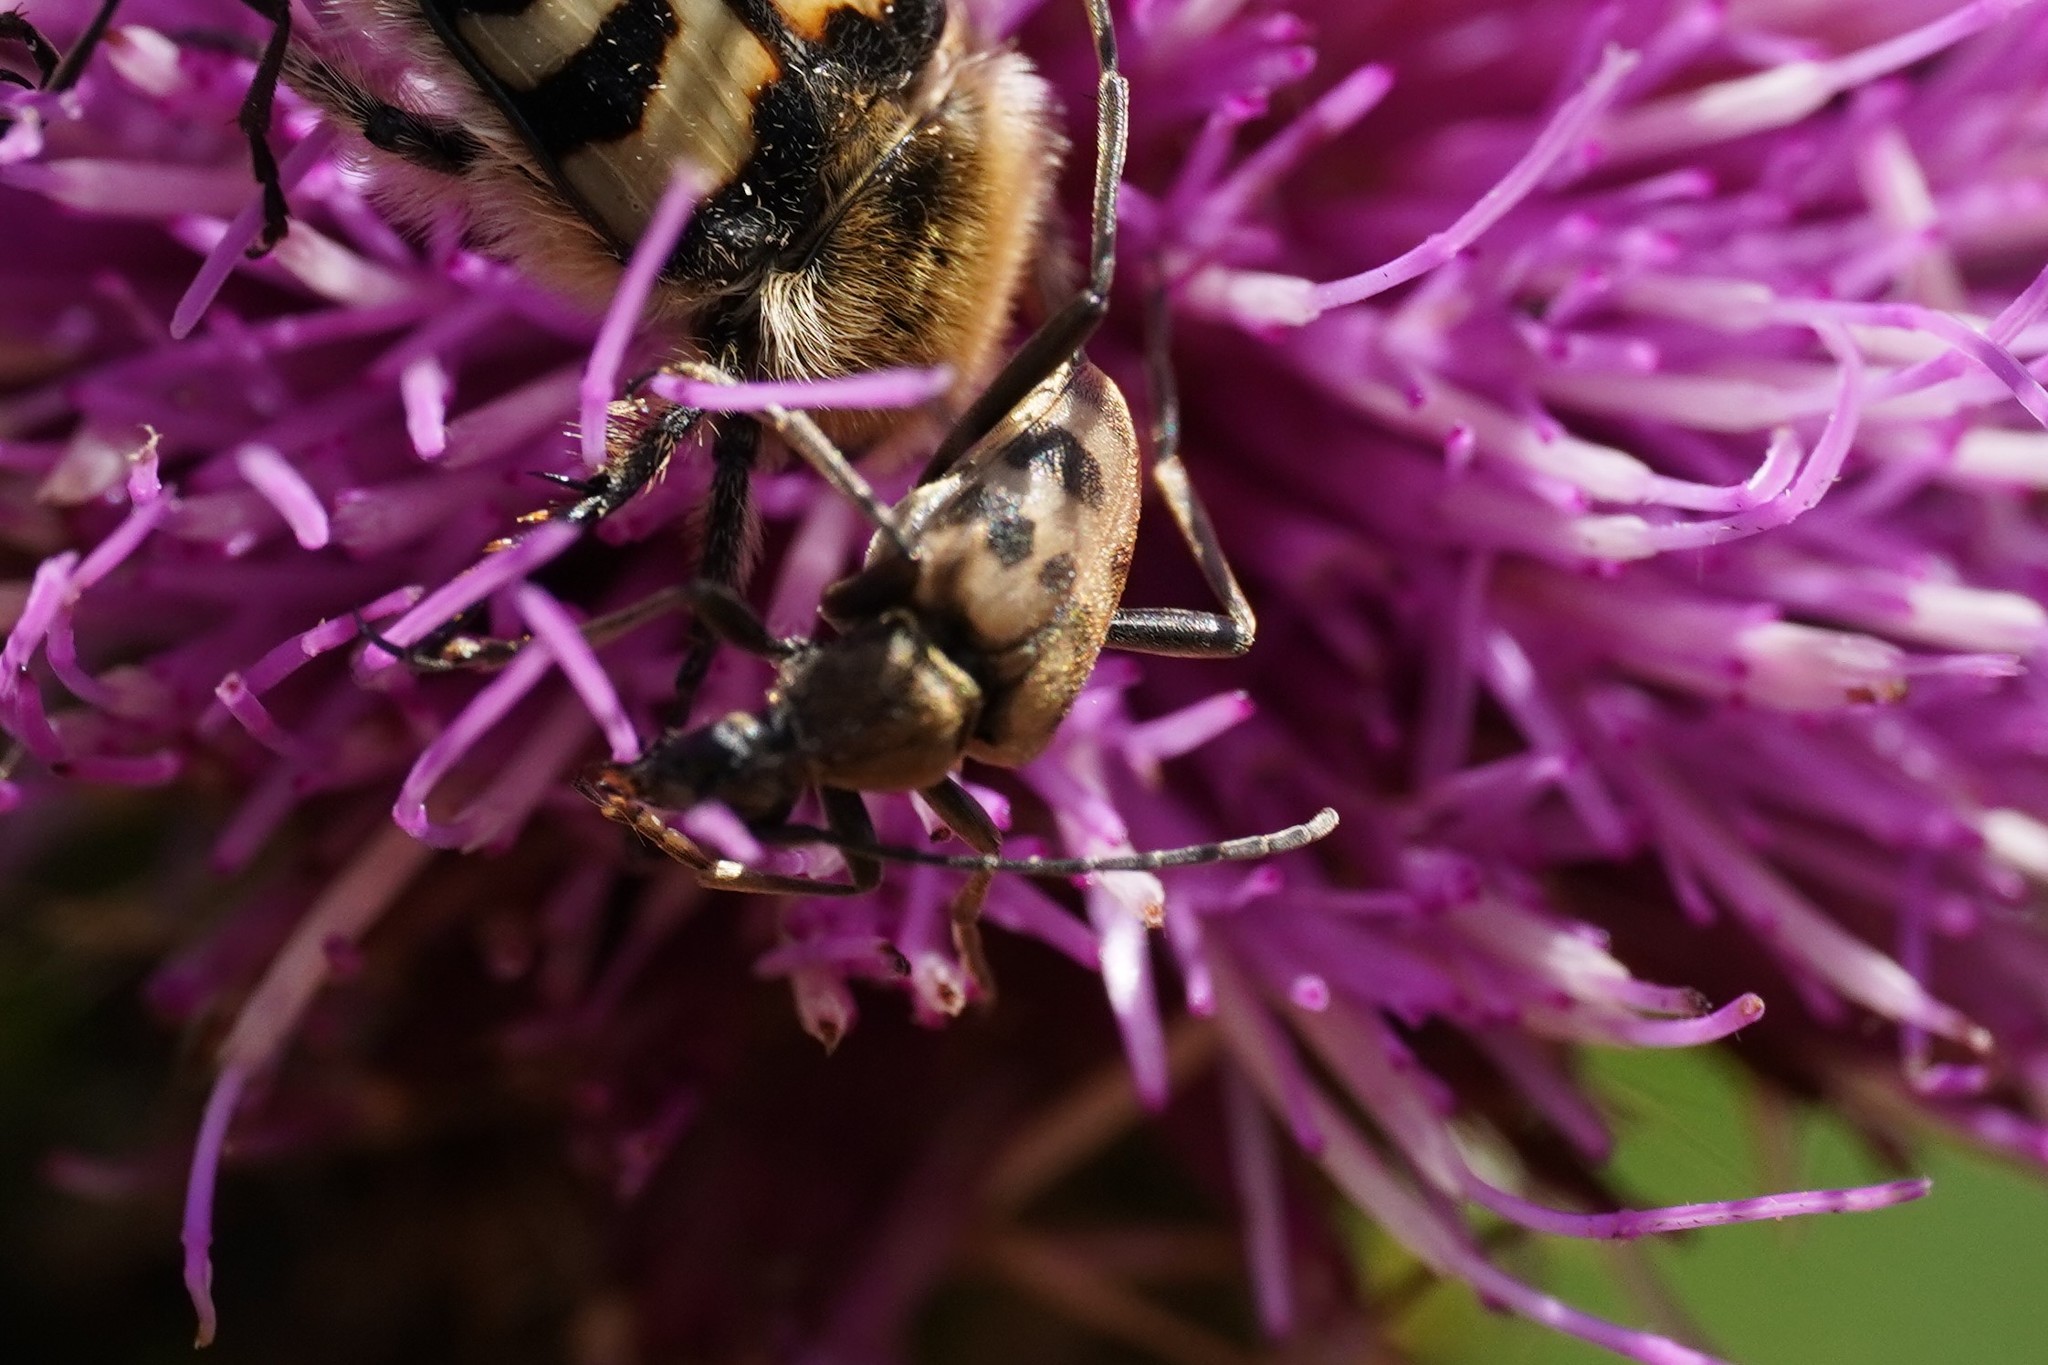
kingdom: Animalia
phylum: Arthropoda
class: Insecta
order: Coleoptera
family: Cerambycidae
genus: Pachytodes
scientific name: Pachytodes cerambyciformis
